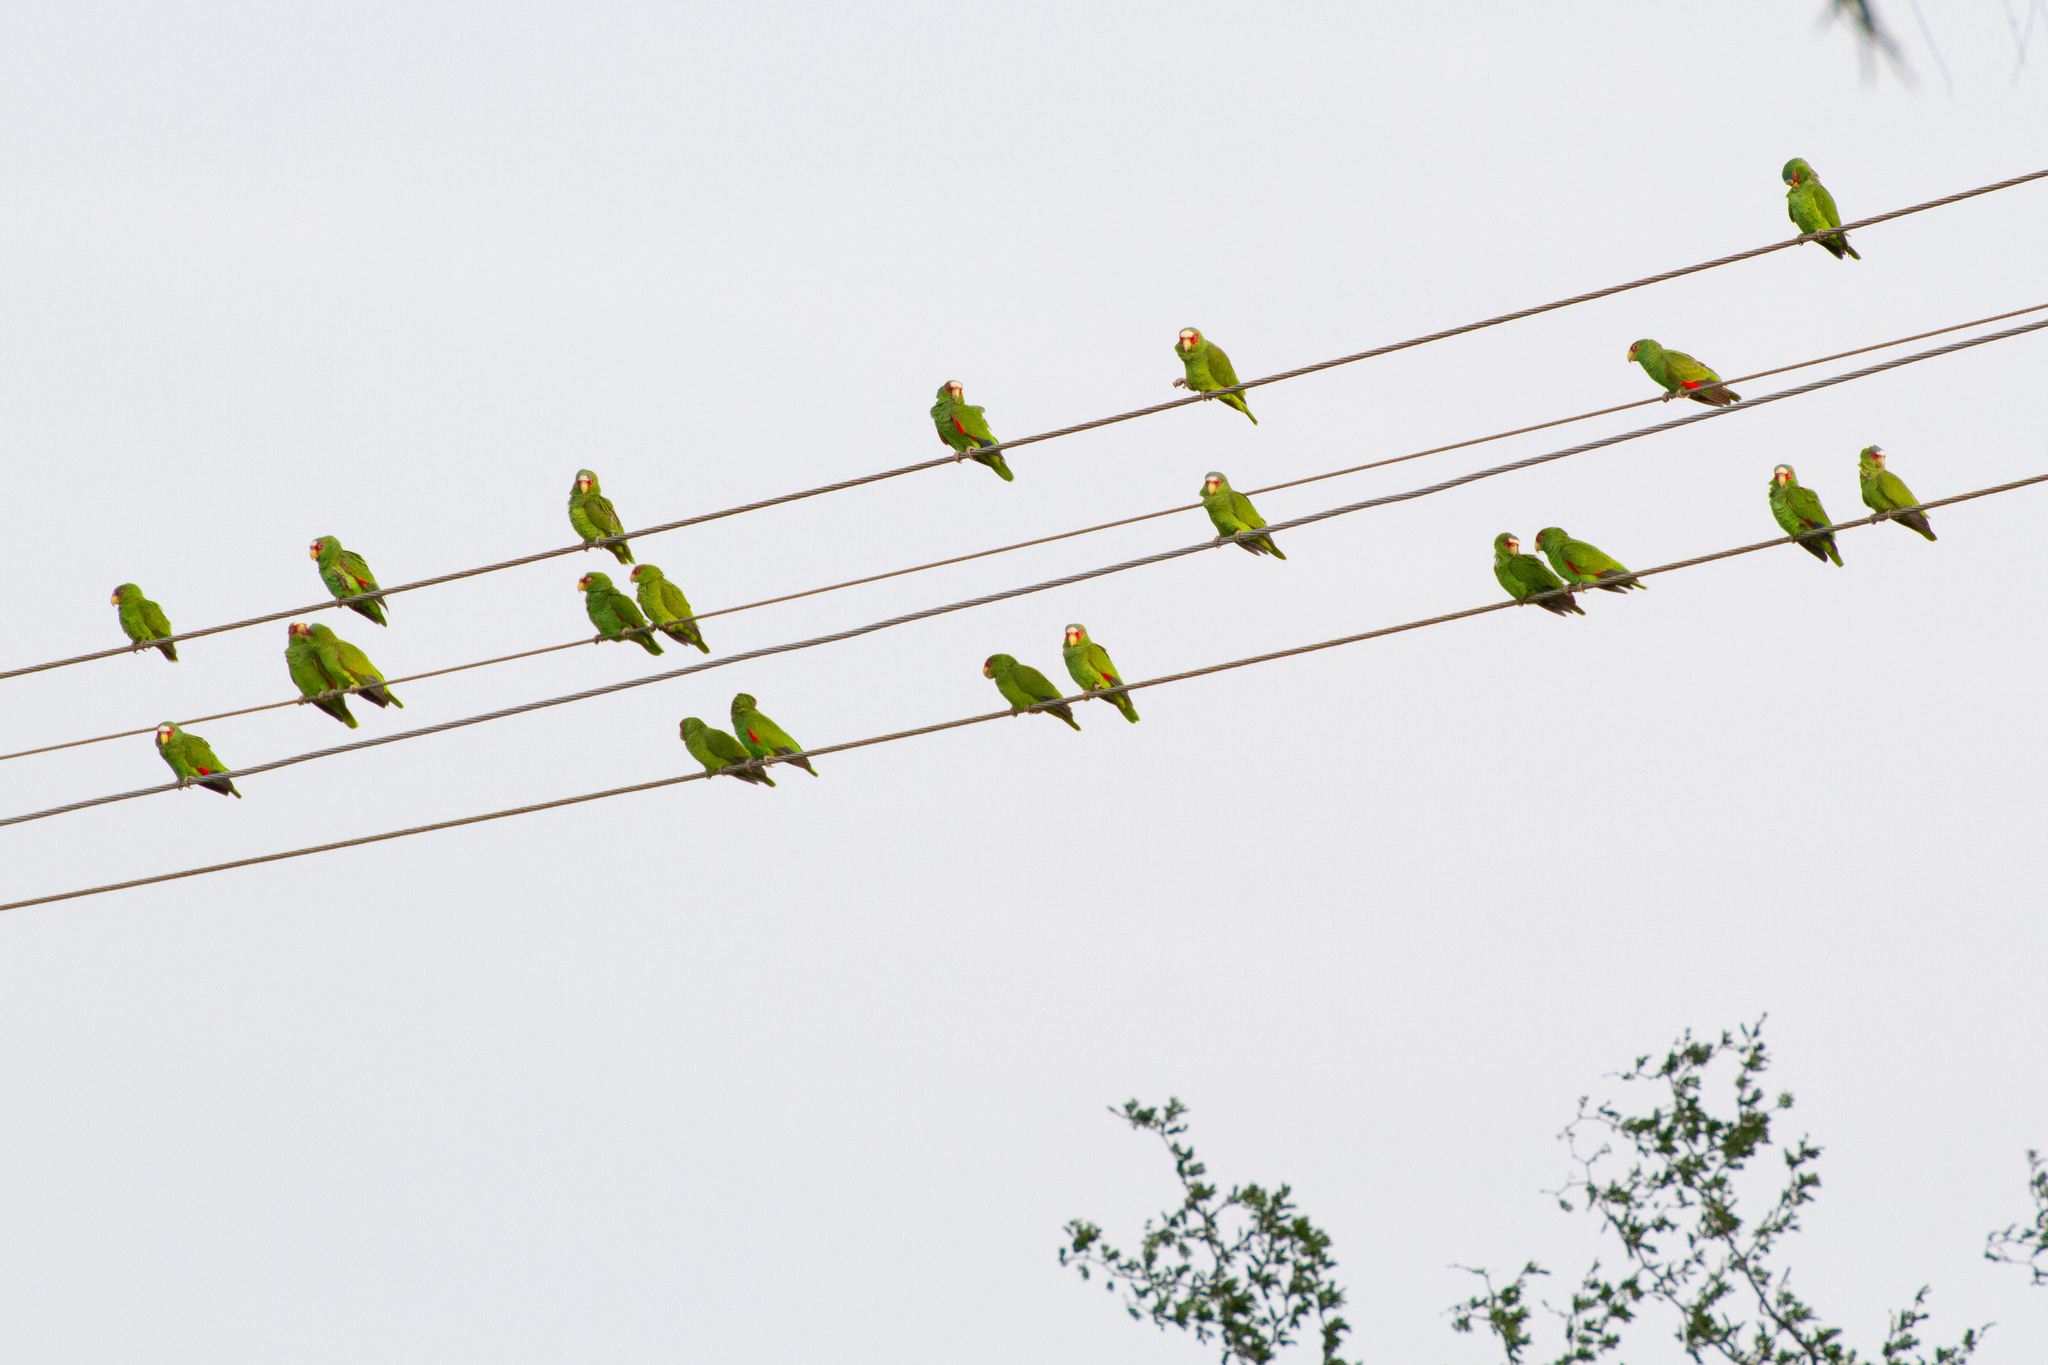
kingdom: Animalia
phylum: Chordata
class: Aves
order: Psittaciformes
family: Psittacidae
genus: Amazona
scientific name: Amazona albifrons
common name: White-fronted amazon
